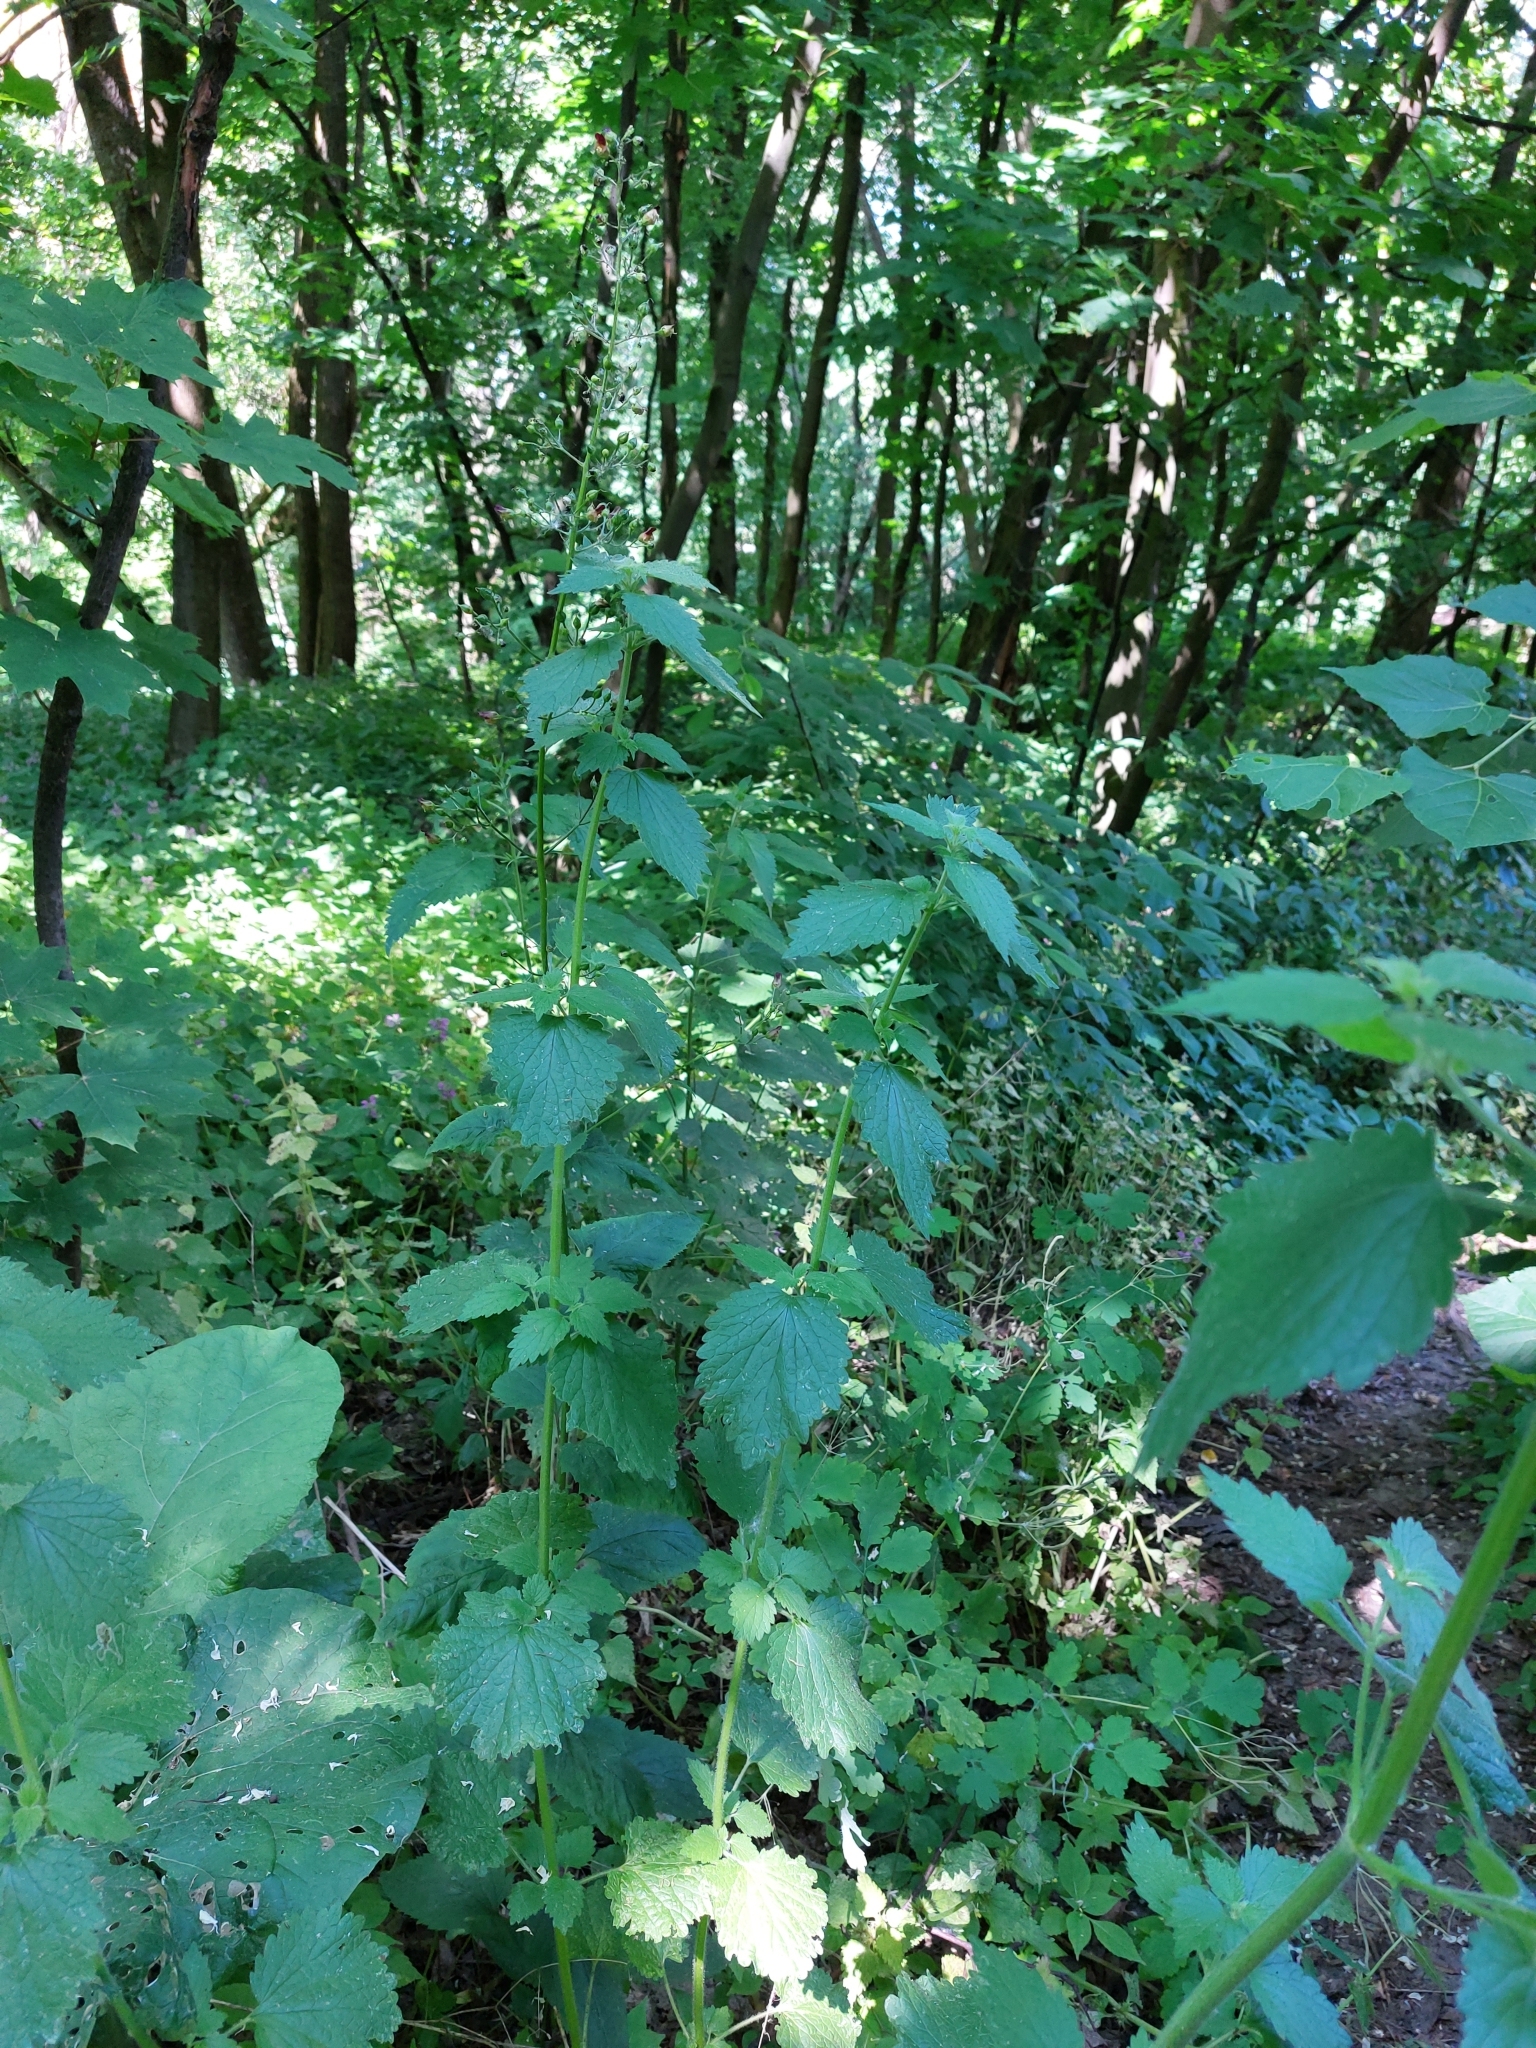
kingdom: Plantae
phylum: Tracheophyta
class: Magnoliopsida
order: Lamiales
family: Scrophulariaceae
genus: Scrophularia
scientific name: Scrophularia nodosa
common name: Common figwort
